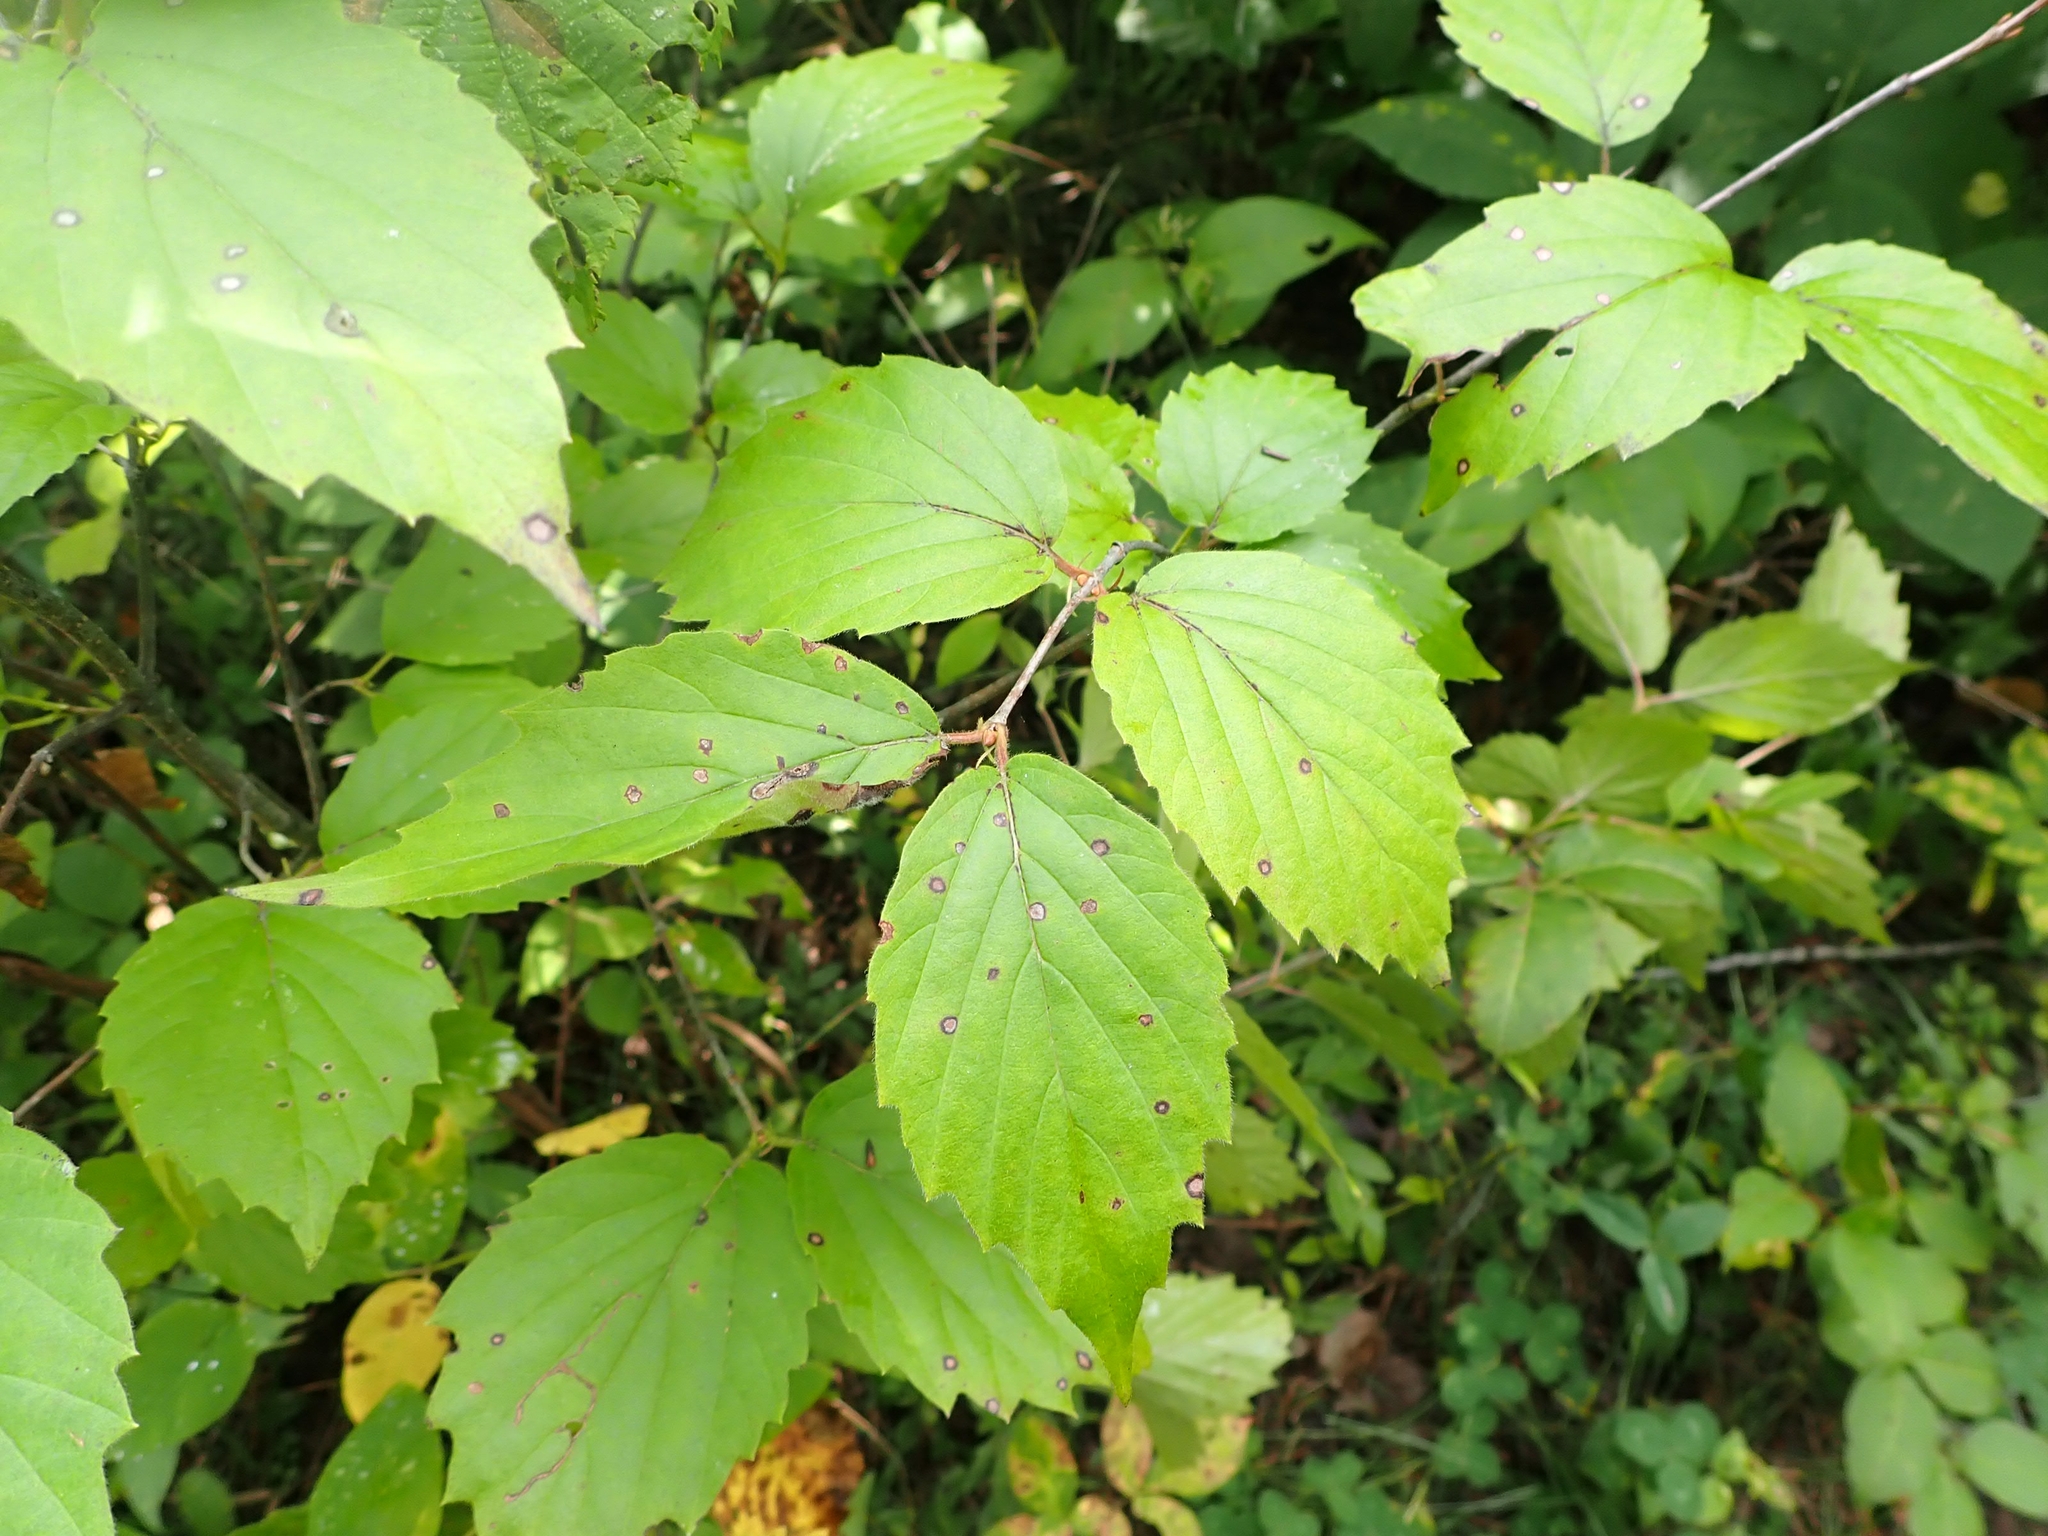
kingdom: Plantae
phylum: Tracheophyta
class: Magnoliopsida
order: Dipsacales
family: Viburnaceae
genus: Viburnum
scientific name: Viburnum rafinesqueanum
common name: Downy arrow-wood
